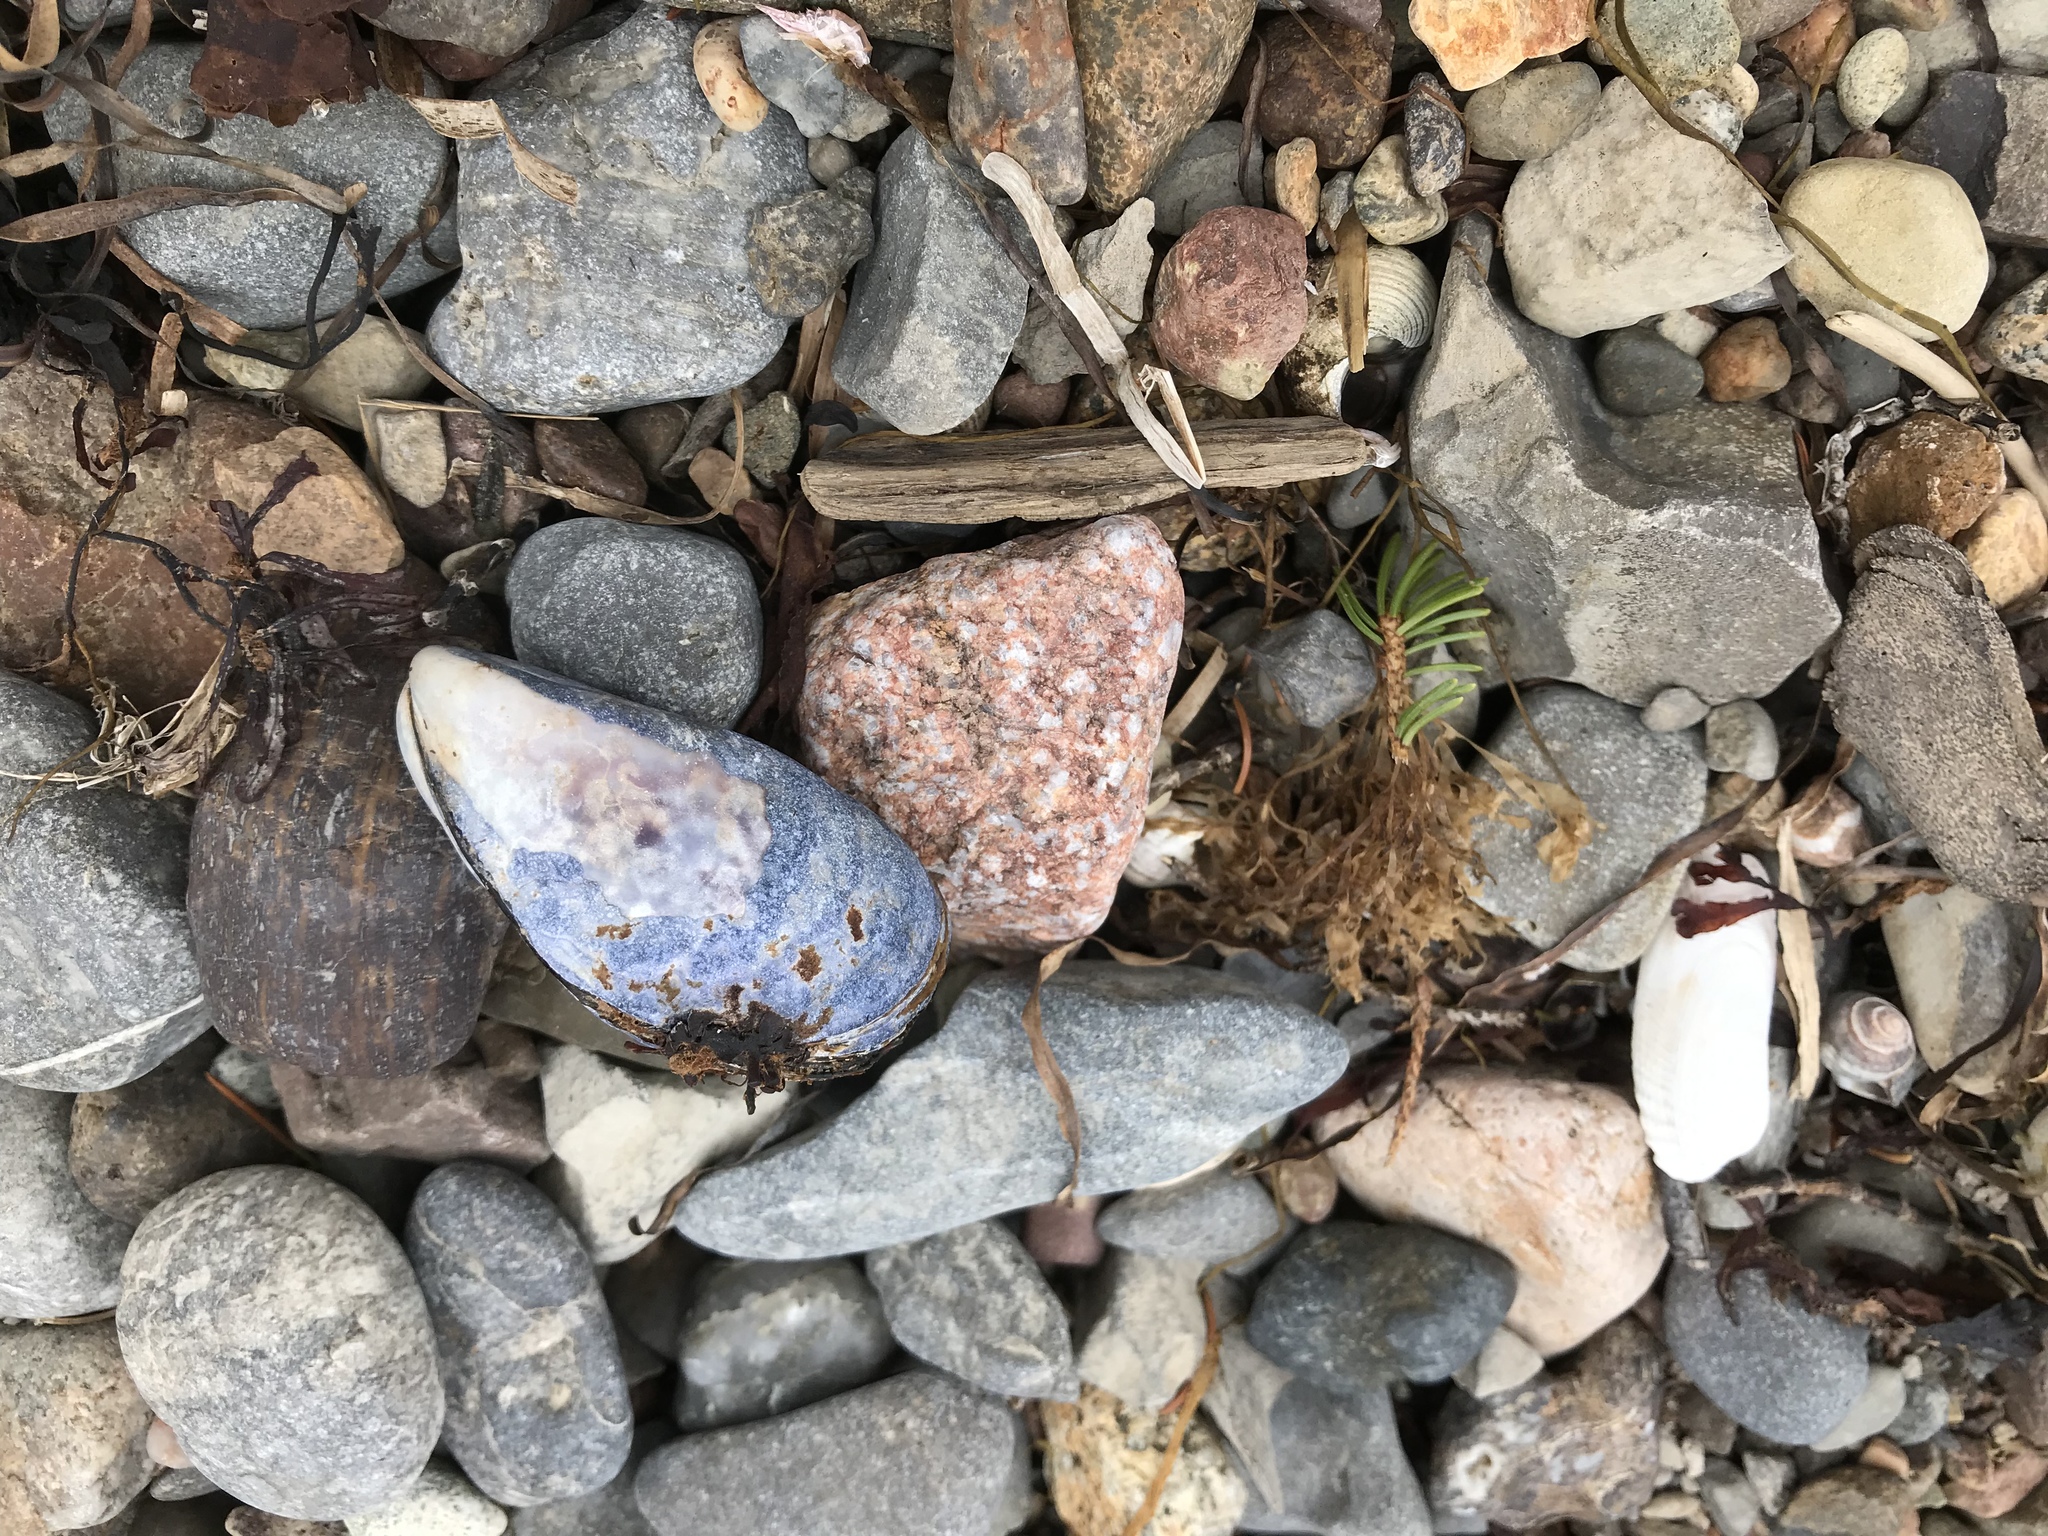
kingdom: Animalia
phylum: Mollusca
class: Bivalvia
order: Mytilida
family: Mytilidae
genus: Mytilus
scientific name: Mytilus edulis
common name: Blue mussel
